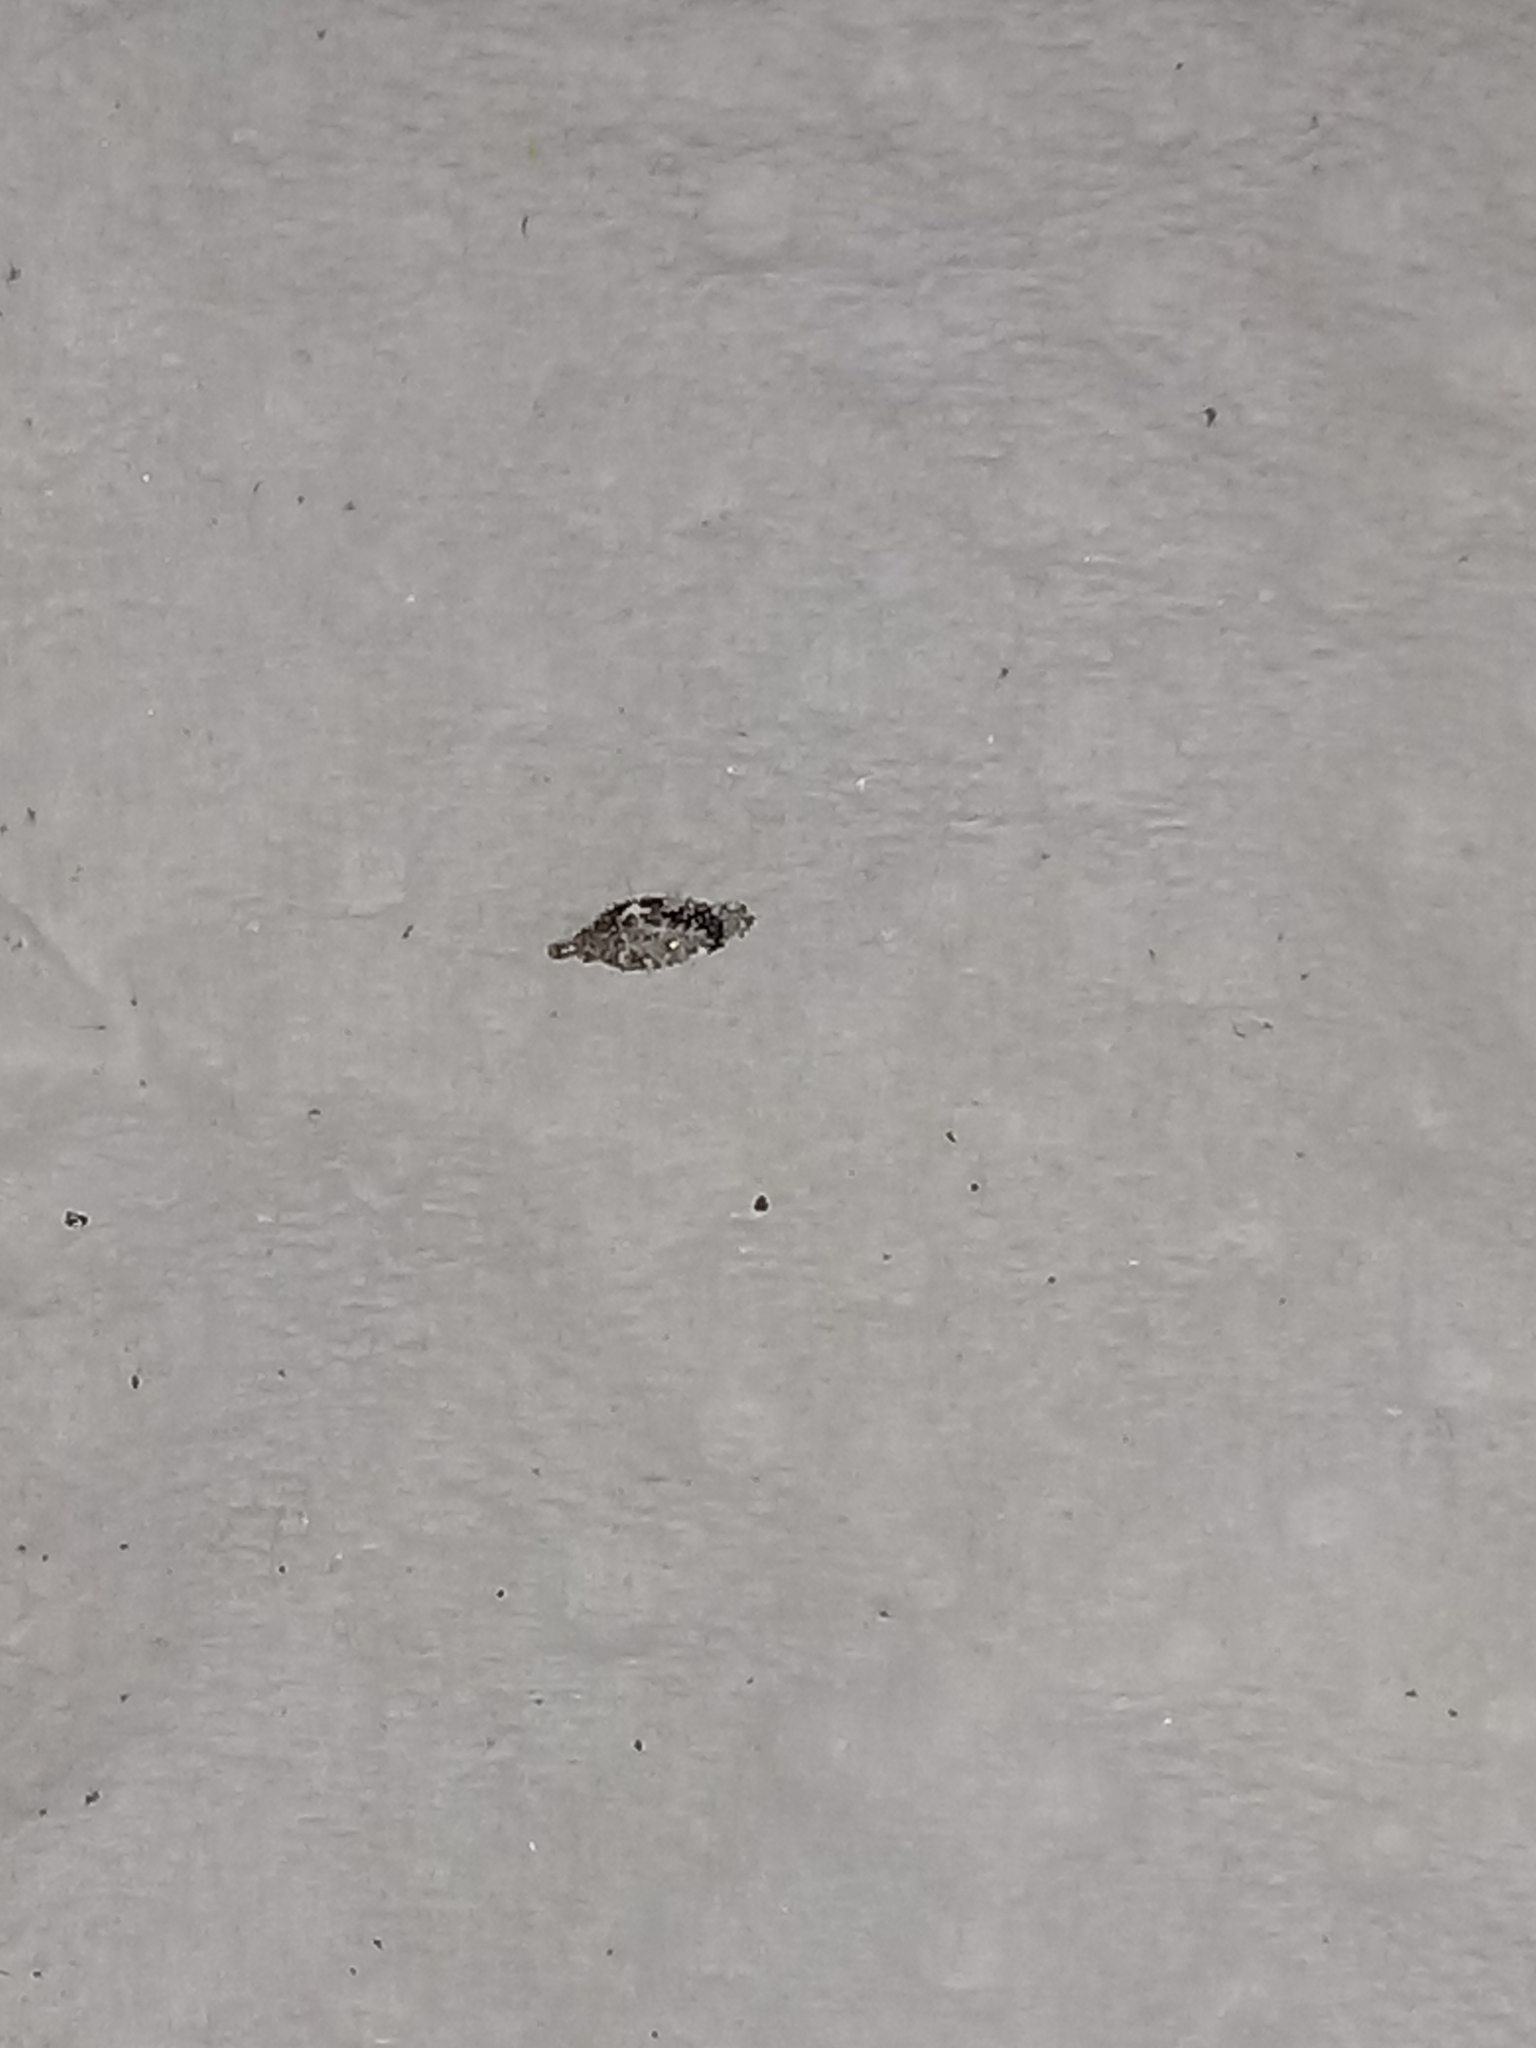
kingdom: Animalia
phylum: Arthropoda
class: Insecta
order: Lepidoptera
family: Tineidae
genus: Phereoeca
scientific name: Phereoeca praecox
